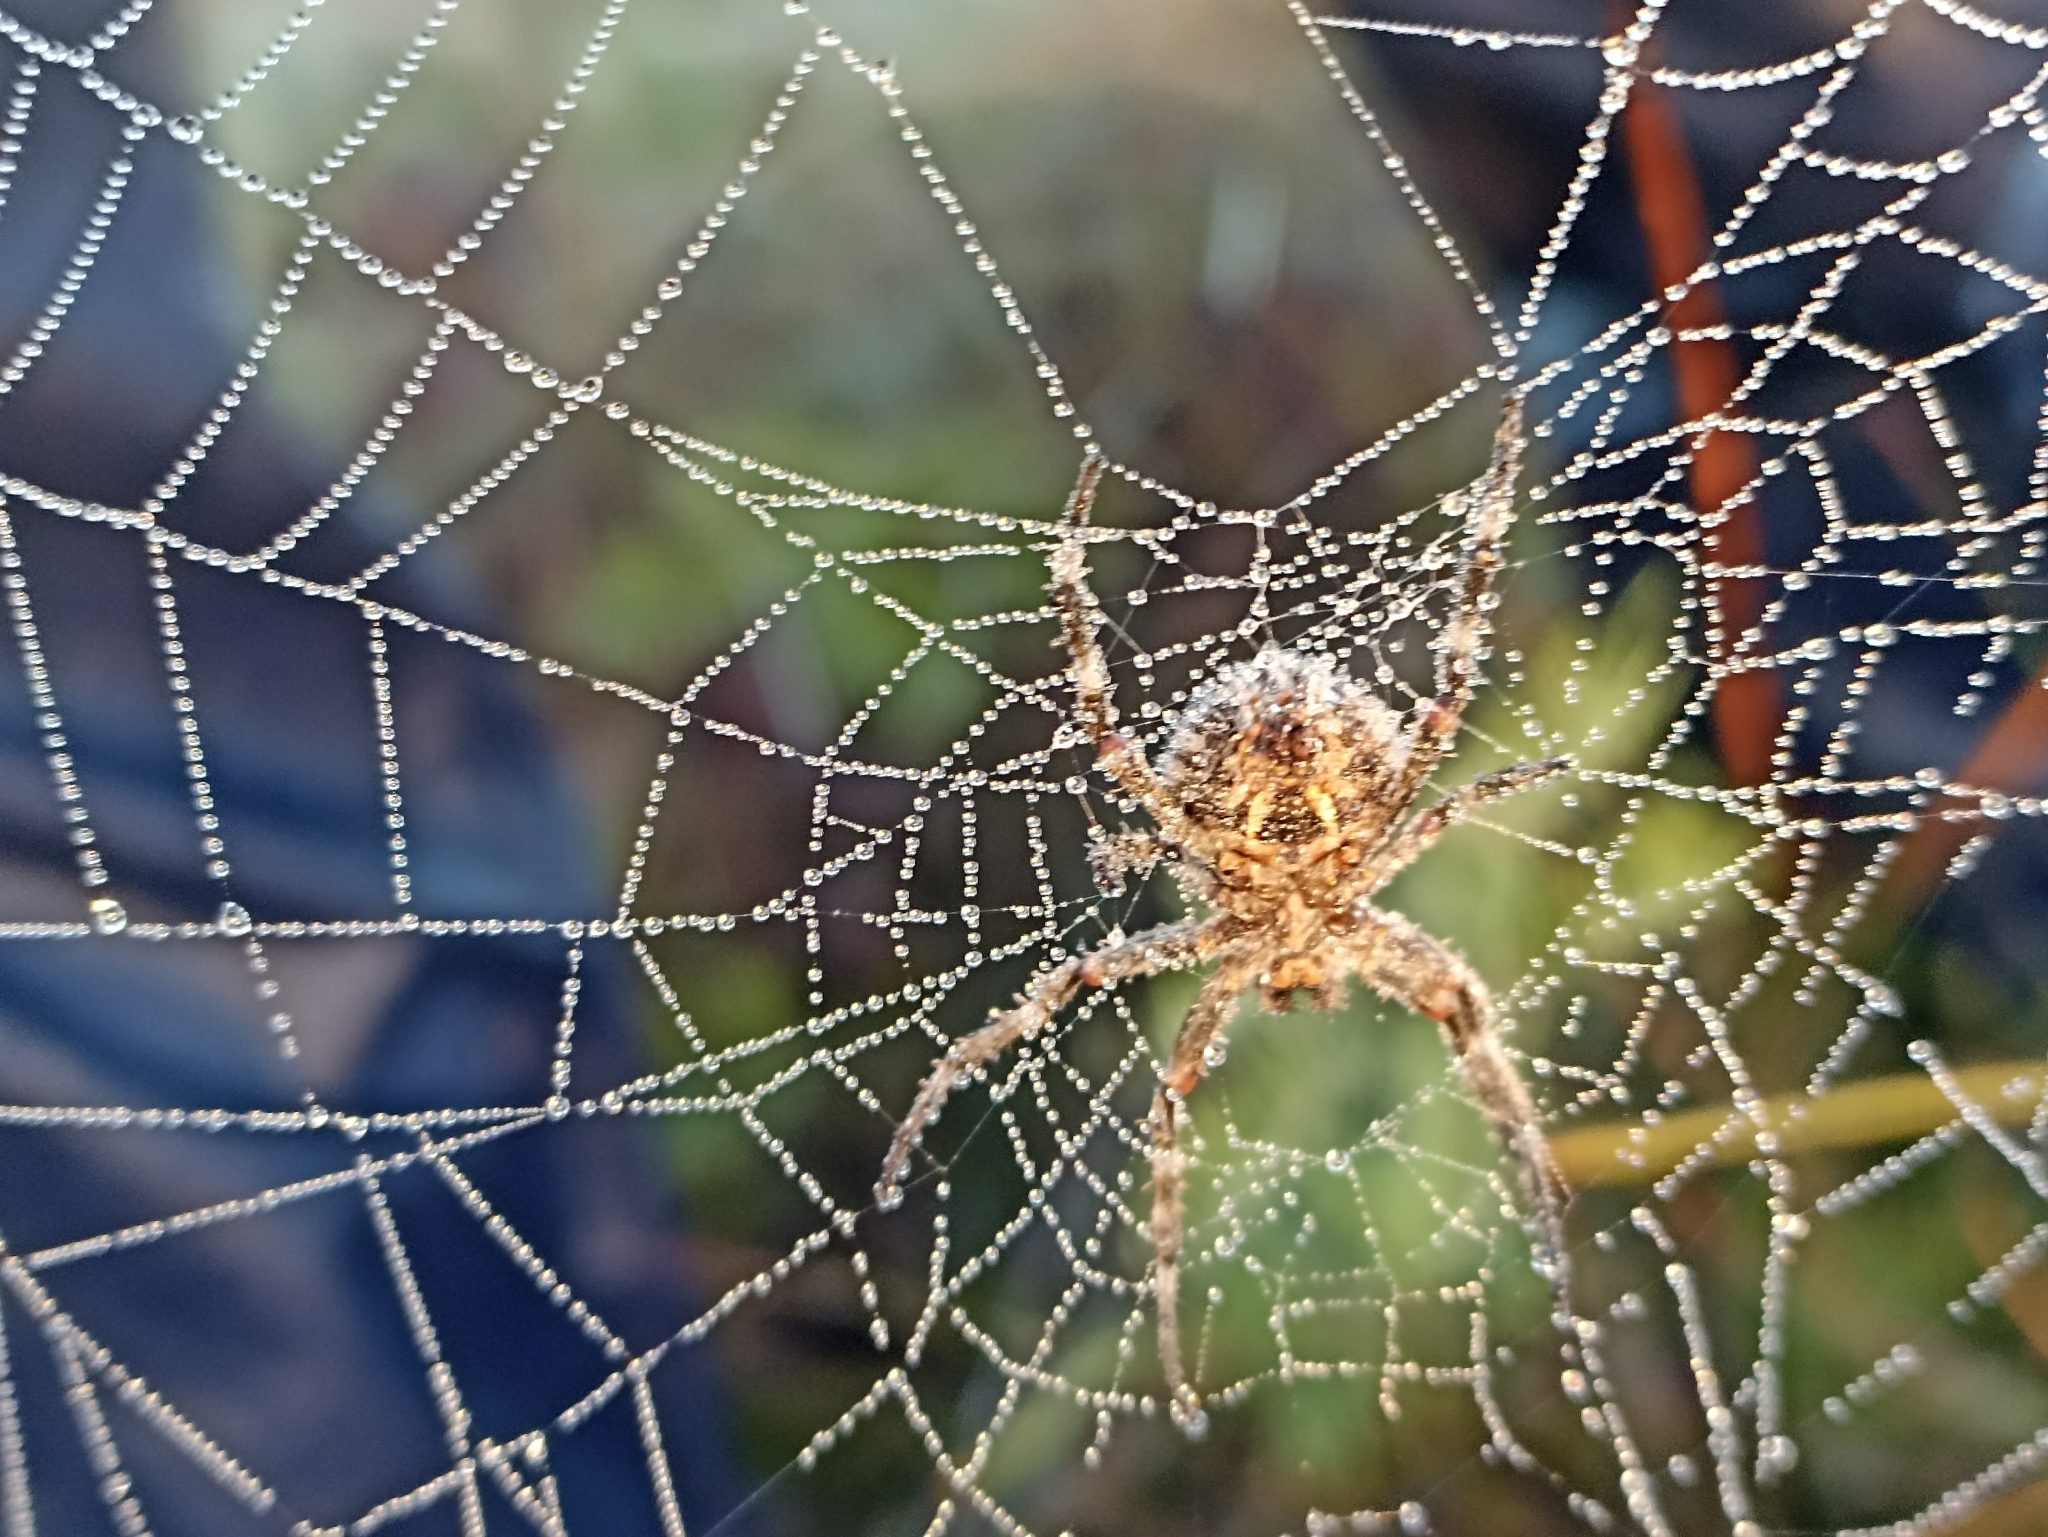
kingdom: Animalia
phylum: Arthropoda
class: Arachnida
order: Araneae
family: Araneidae
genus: Backobourkia
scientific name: Backobourkia brouni
